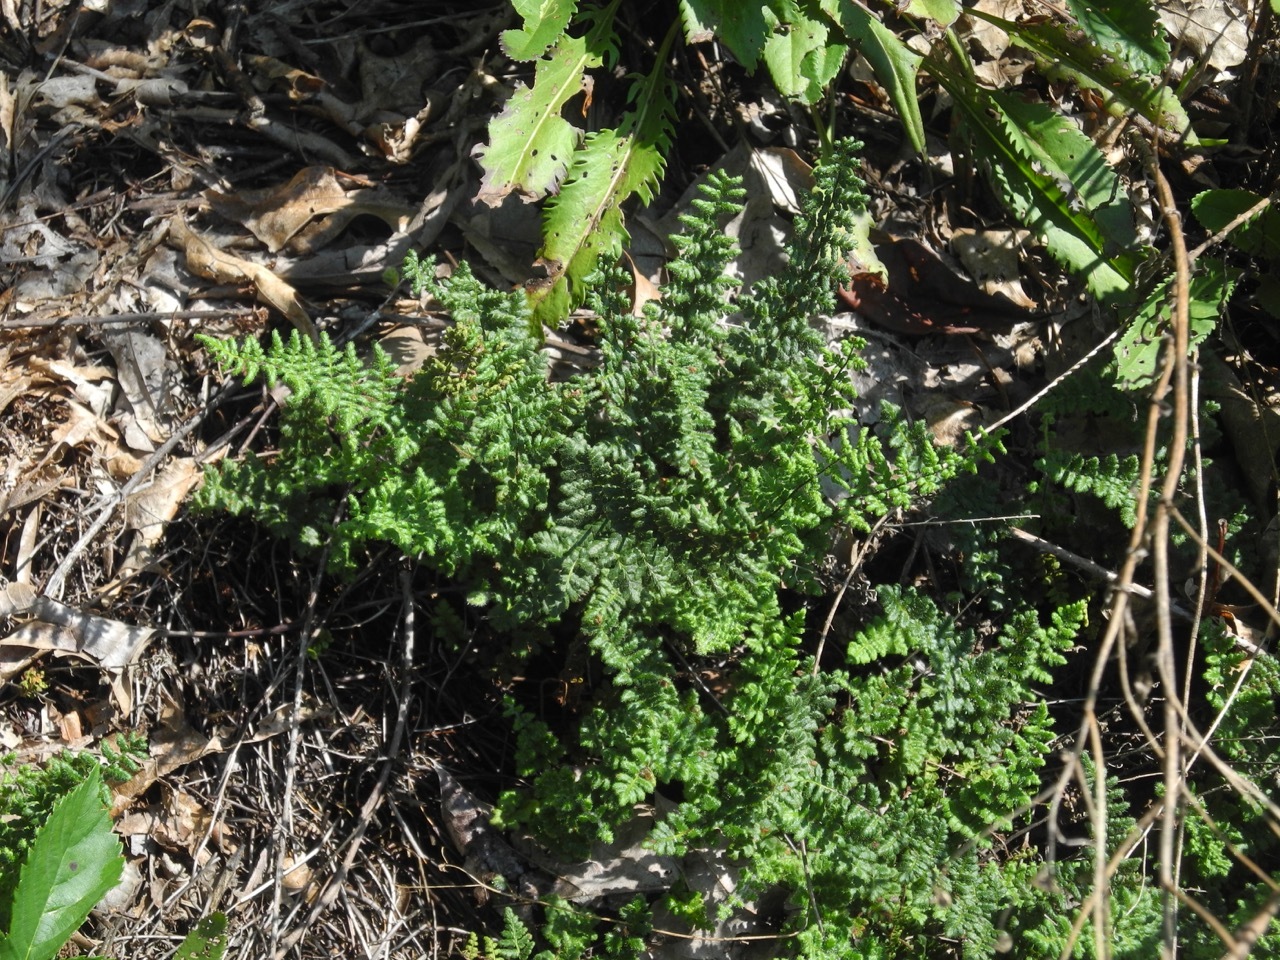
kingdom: Plantae
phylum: Tracheophyta
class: Polypodiopsida
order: Polypodiales
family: Pteridaceae
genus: Myriopteris
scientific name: Myriopteris lanosa
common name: Hairy lip fern
